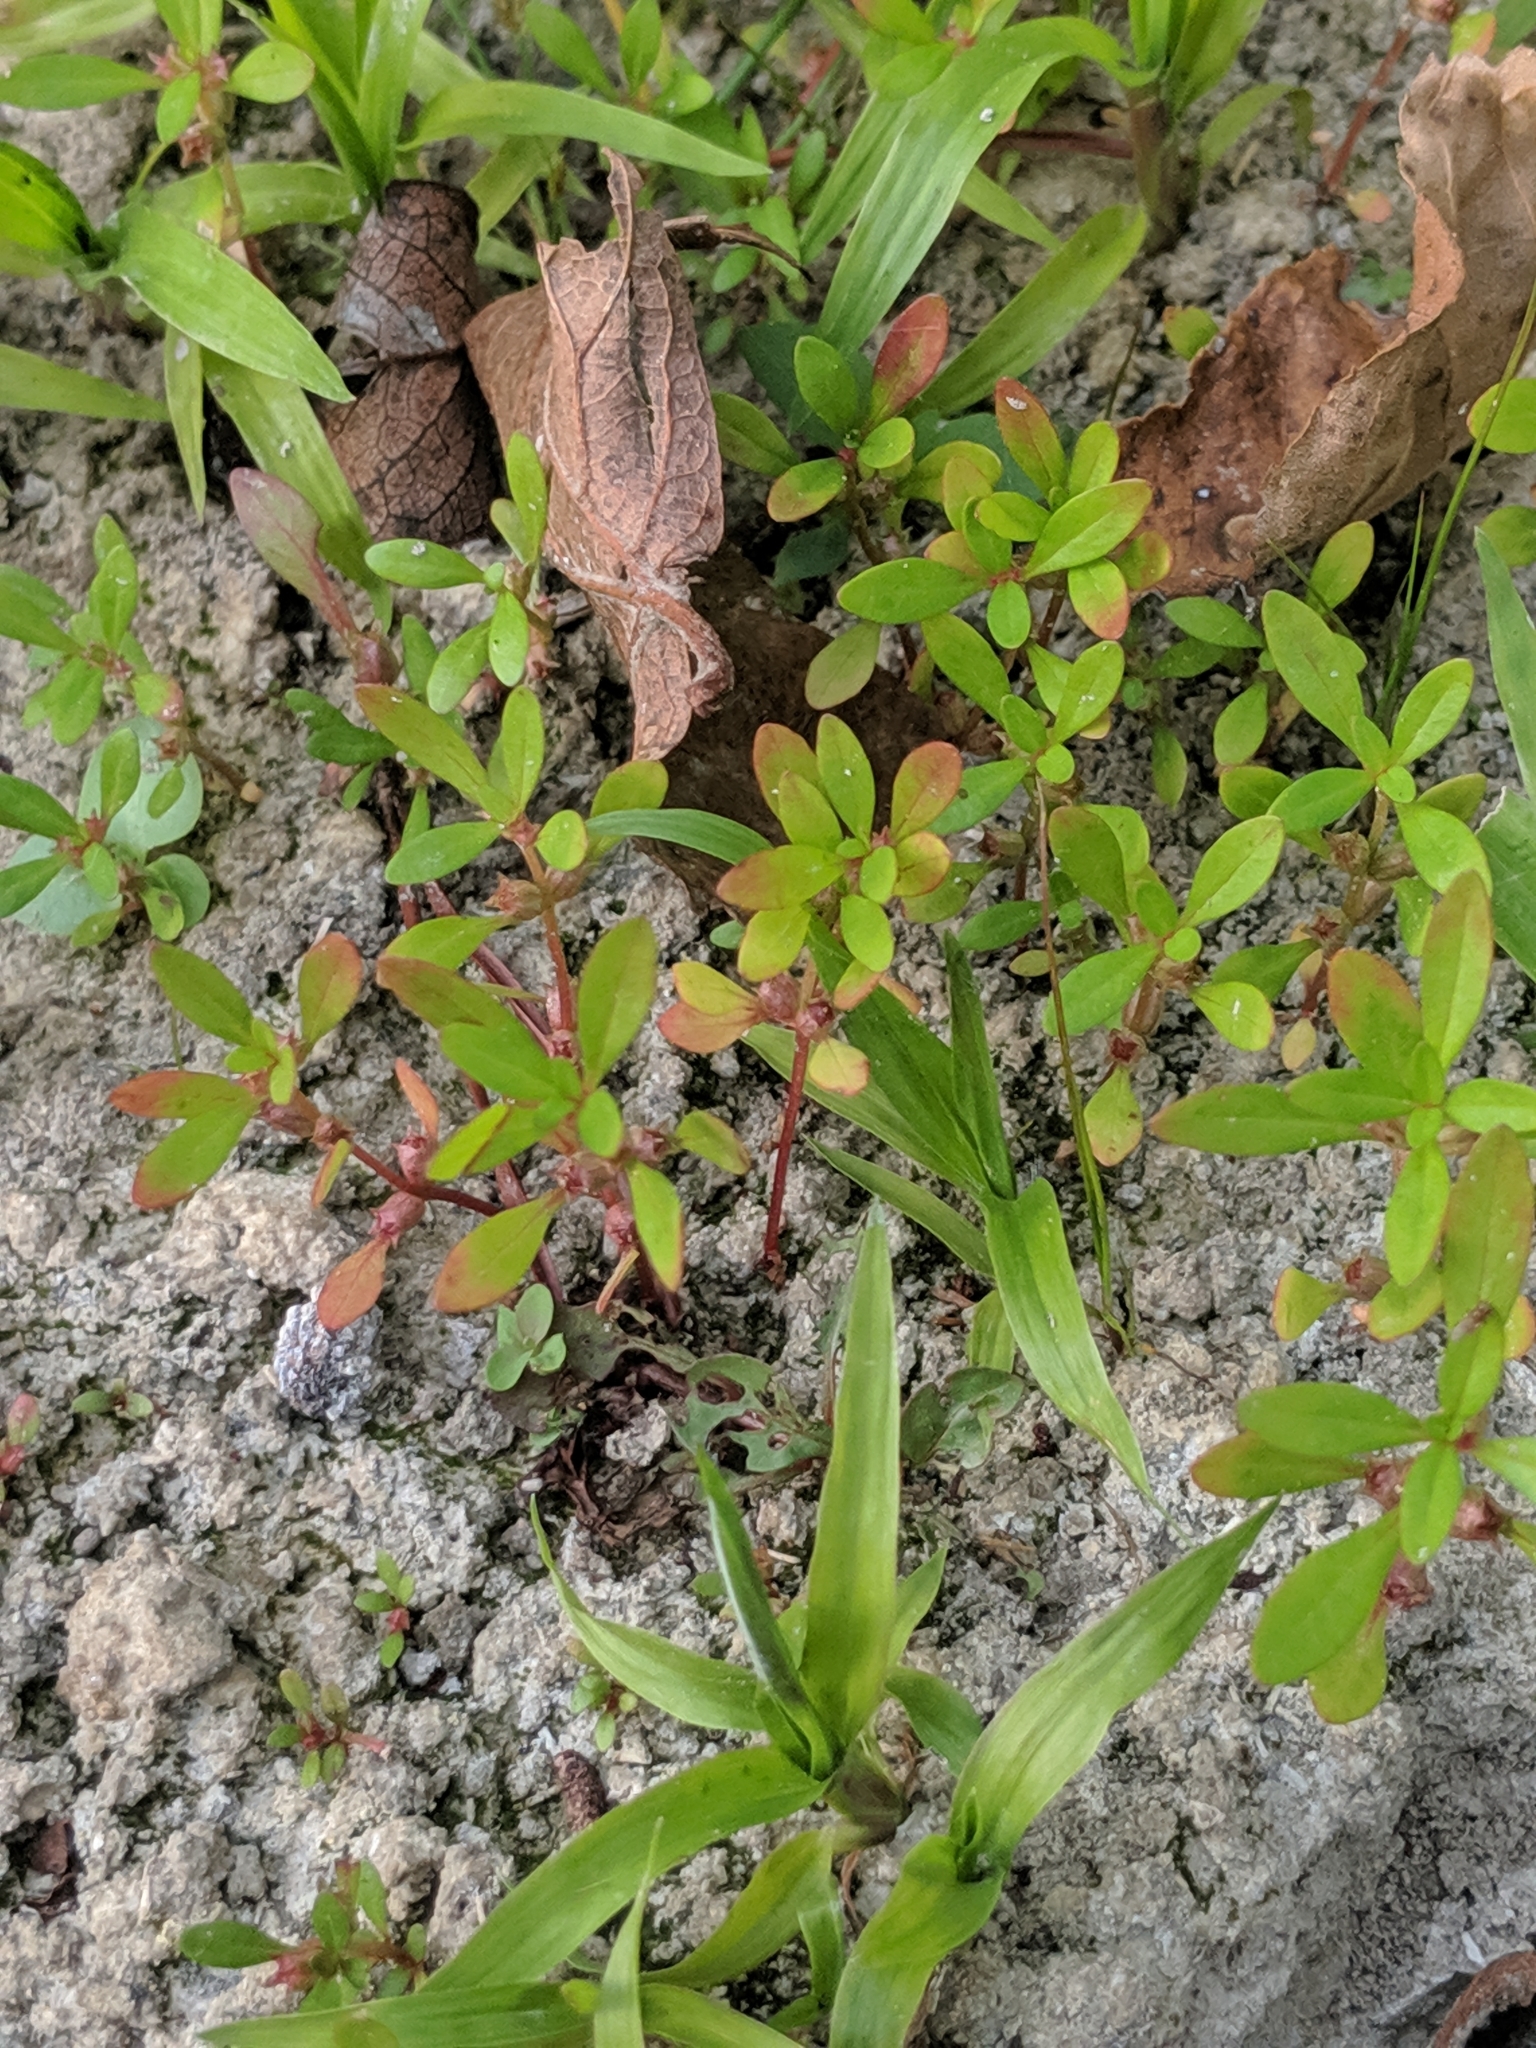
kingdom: Plantae
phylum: Tracheophyta
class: Magnoliopsida
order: Myrtales
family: Lythraceae
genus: Rotala
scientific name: Rotala ramosior
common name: Lowland rotala
